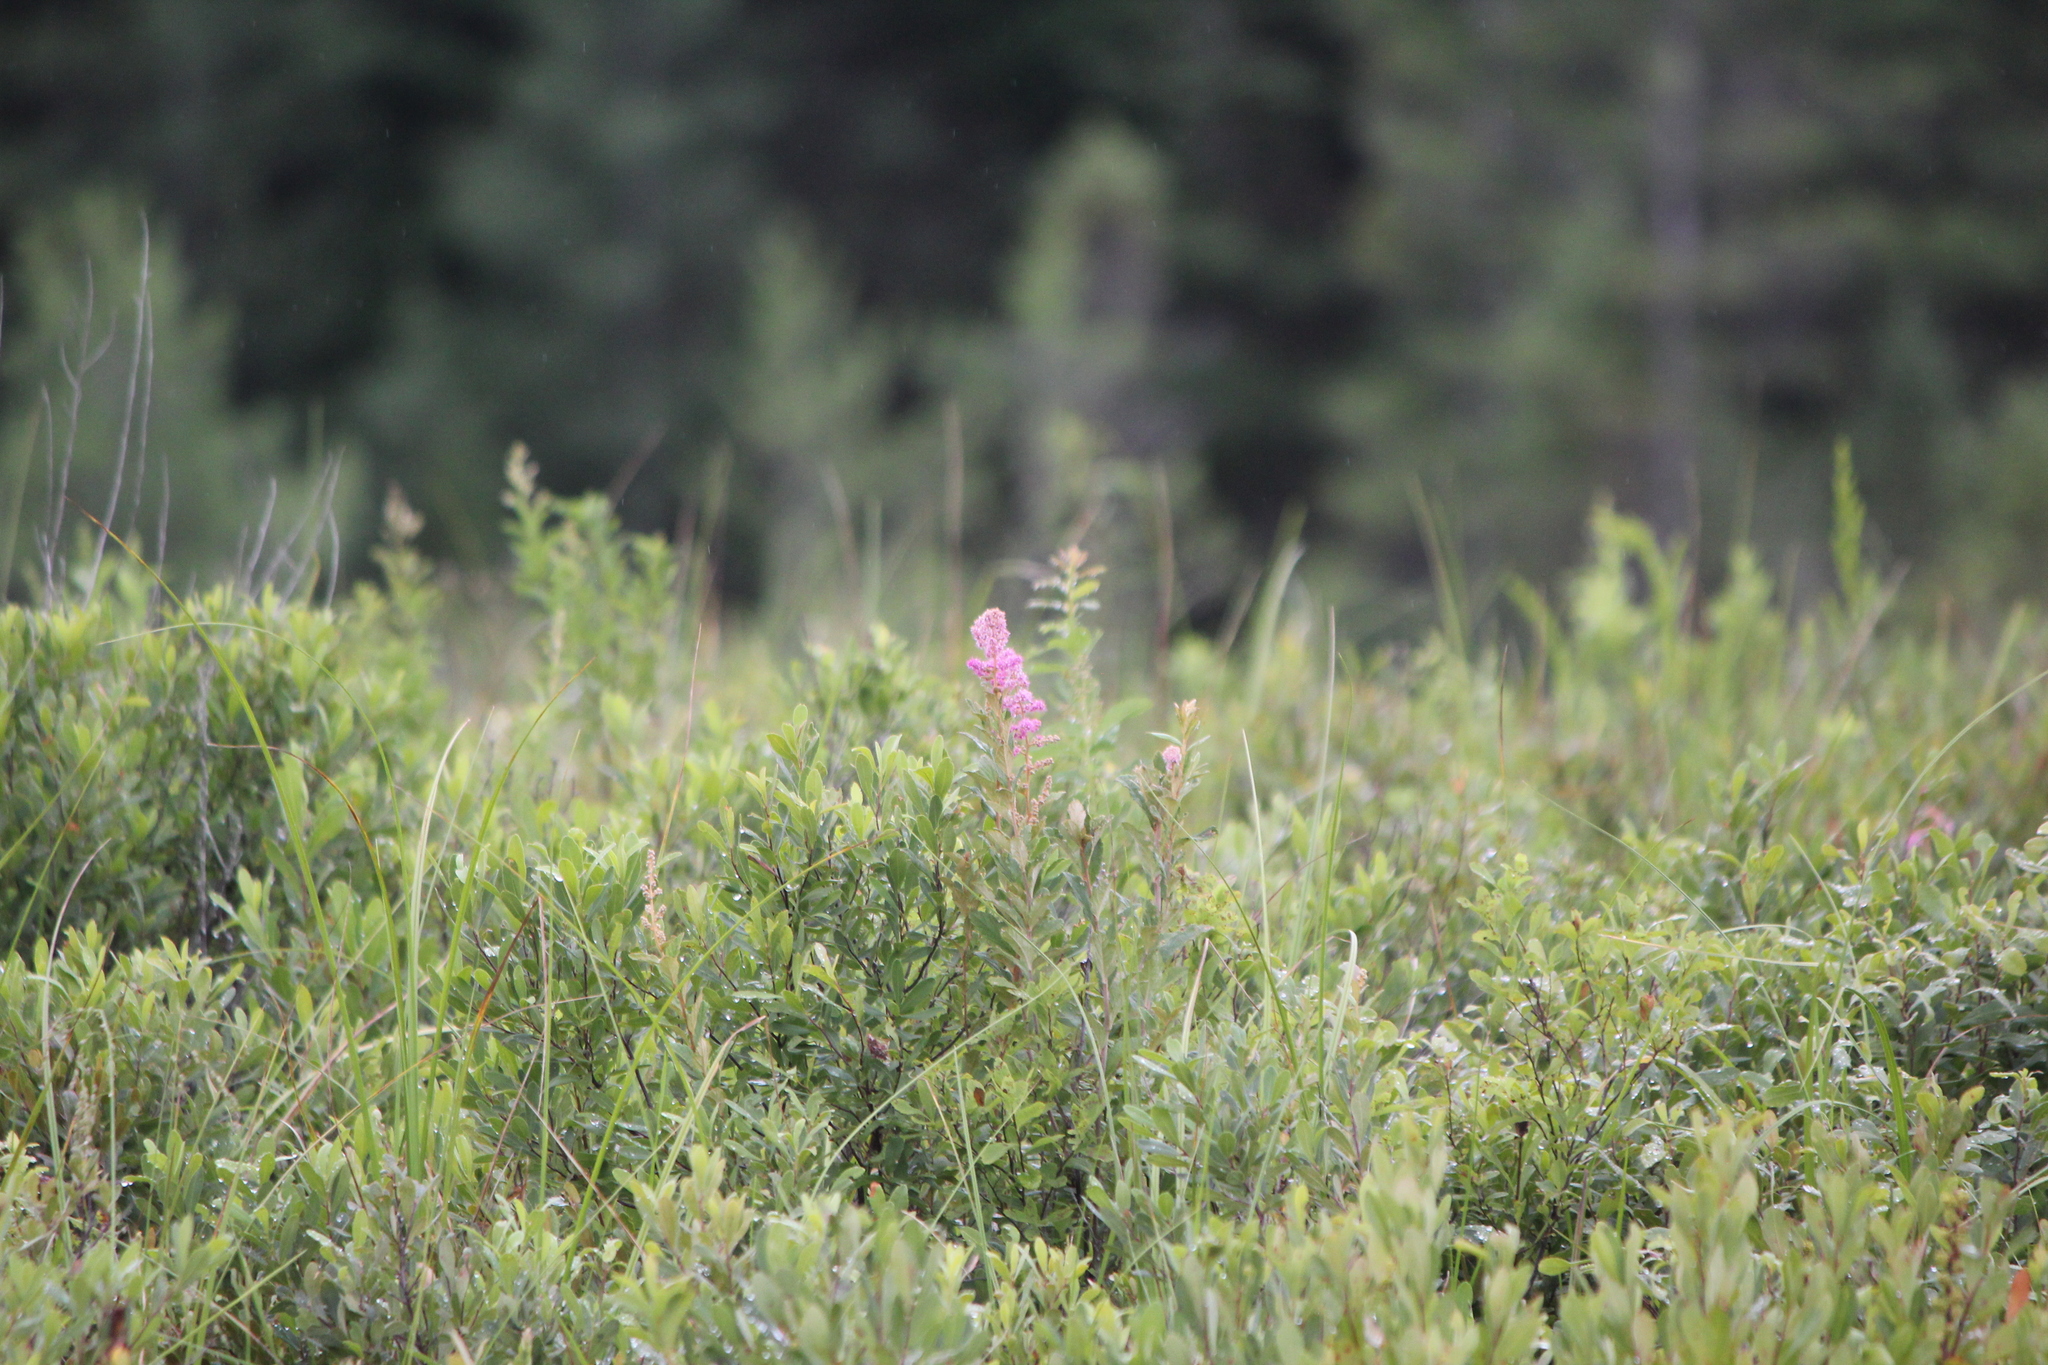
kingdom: Plantae
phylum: Tracheophyta
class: Magnoliopsida
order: Rosales
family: Rosaceae
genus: Spiraea
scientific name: Spiraea tomentosa
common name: Hardhack
